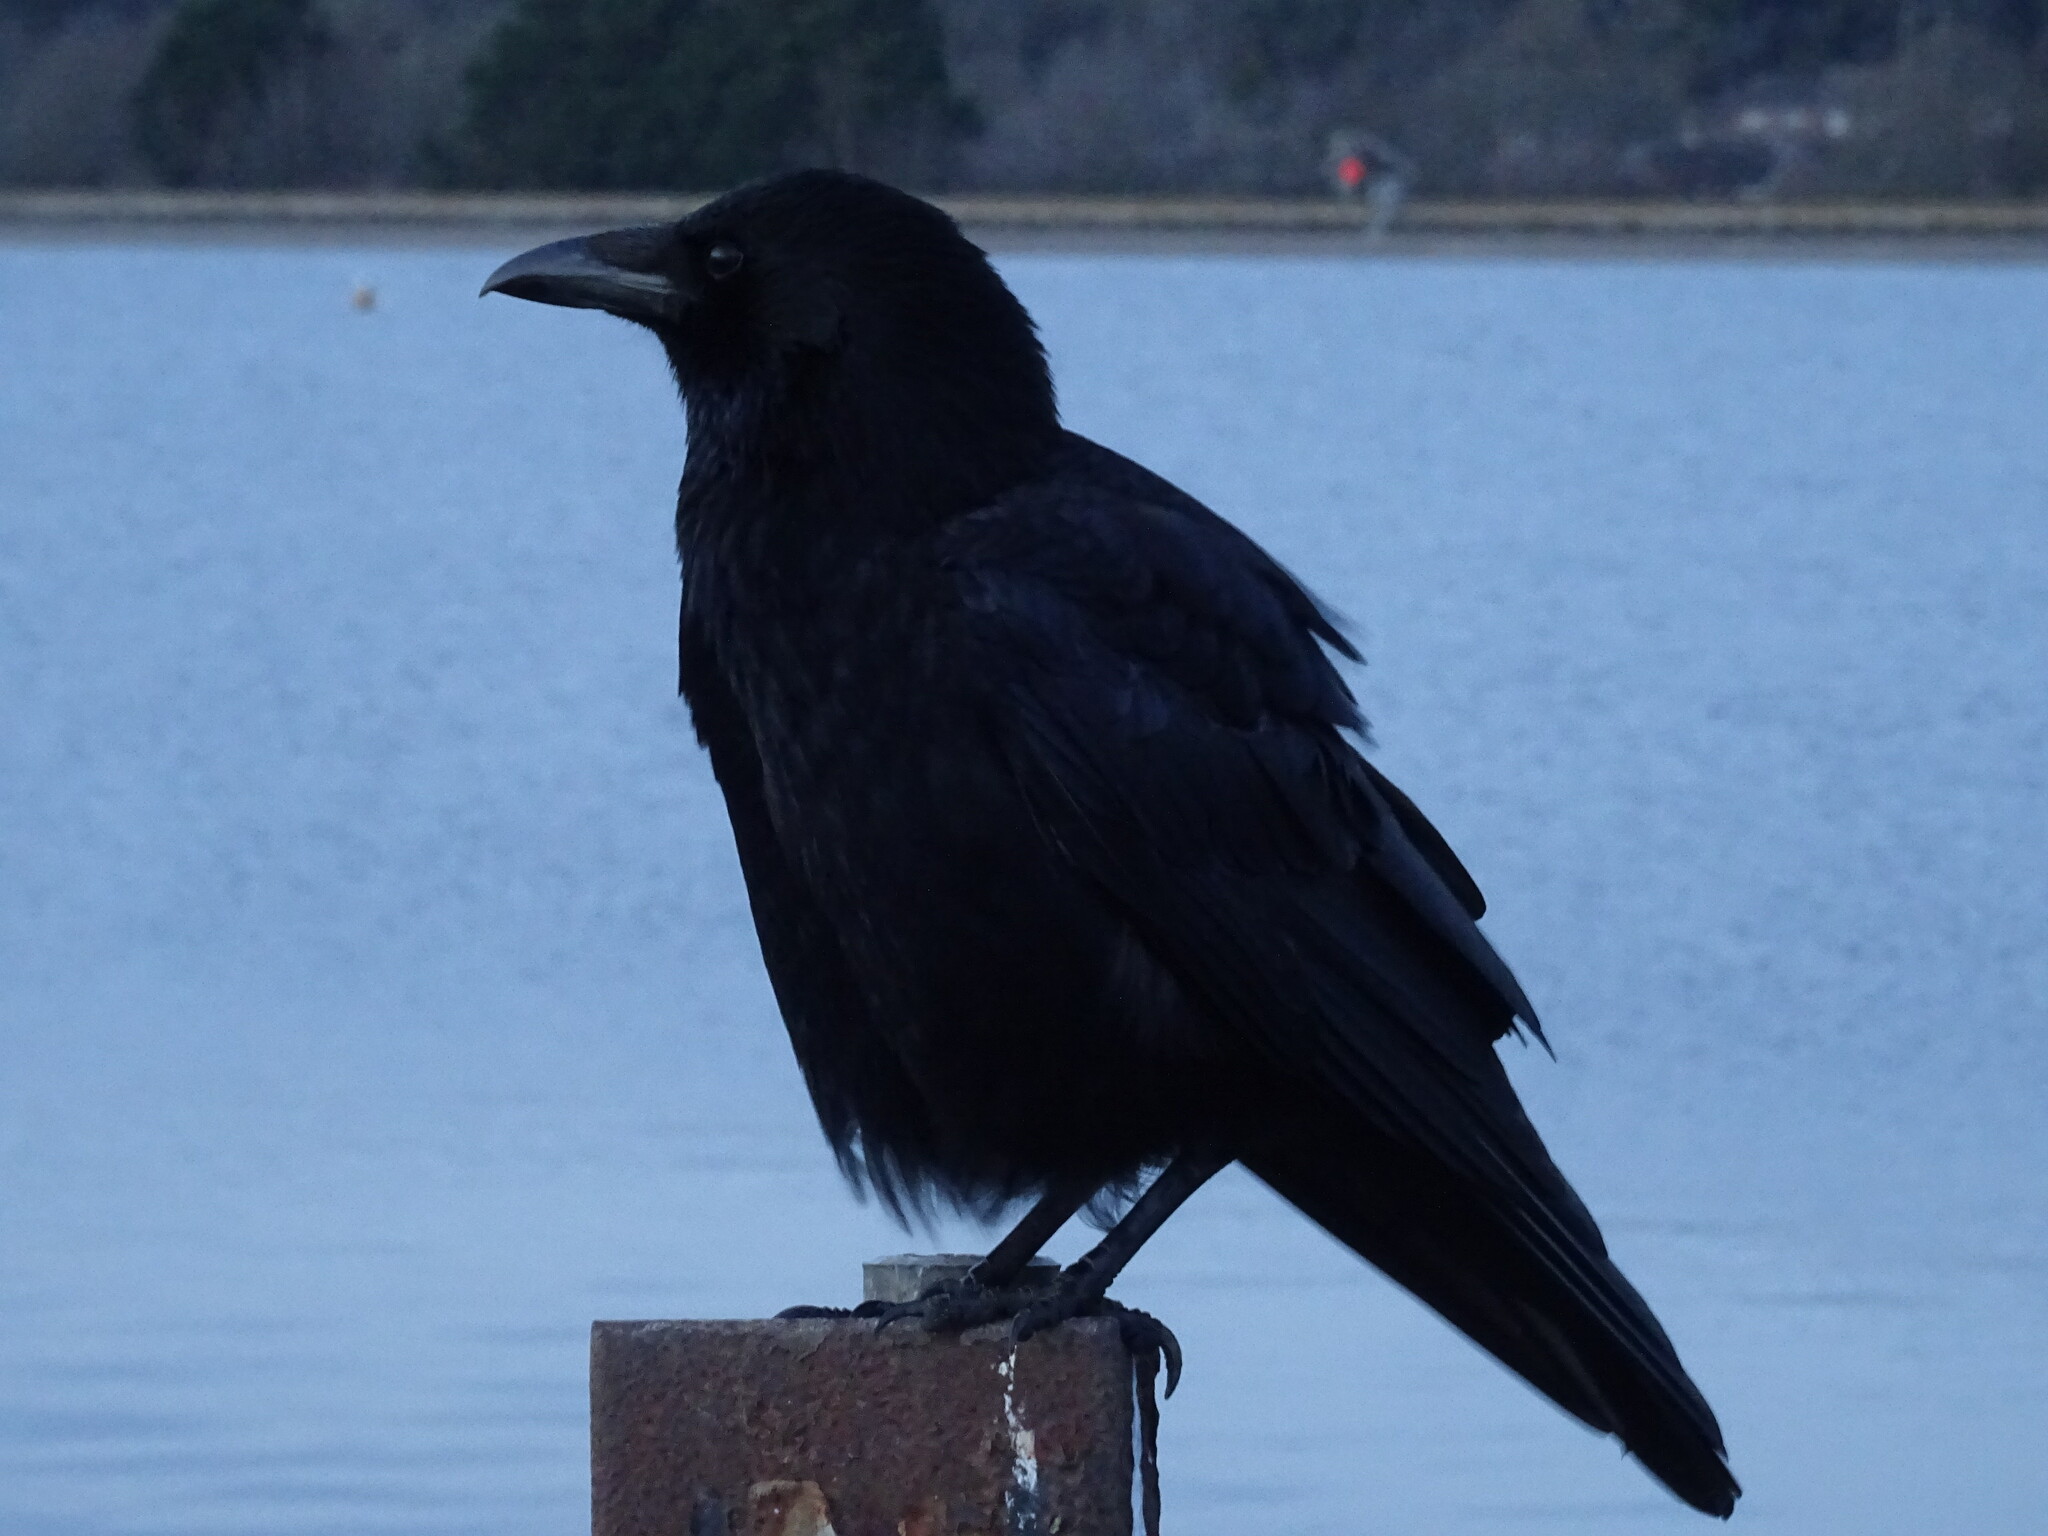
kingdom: Animalia
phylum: Chordata
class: Aves
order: Passeriformes
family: Corvidae
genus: Corvus
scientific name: Corvus corone
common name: Carrion crow
